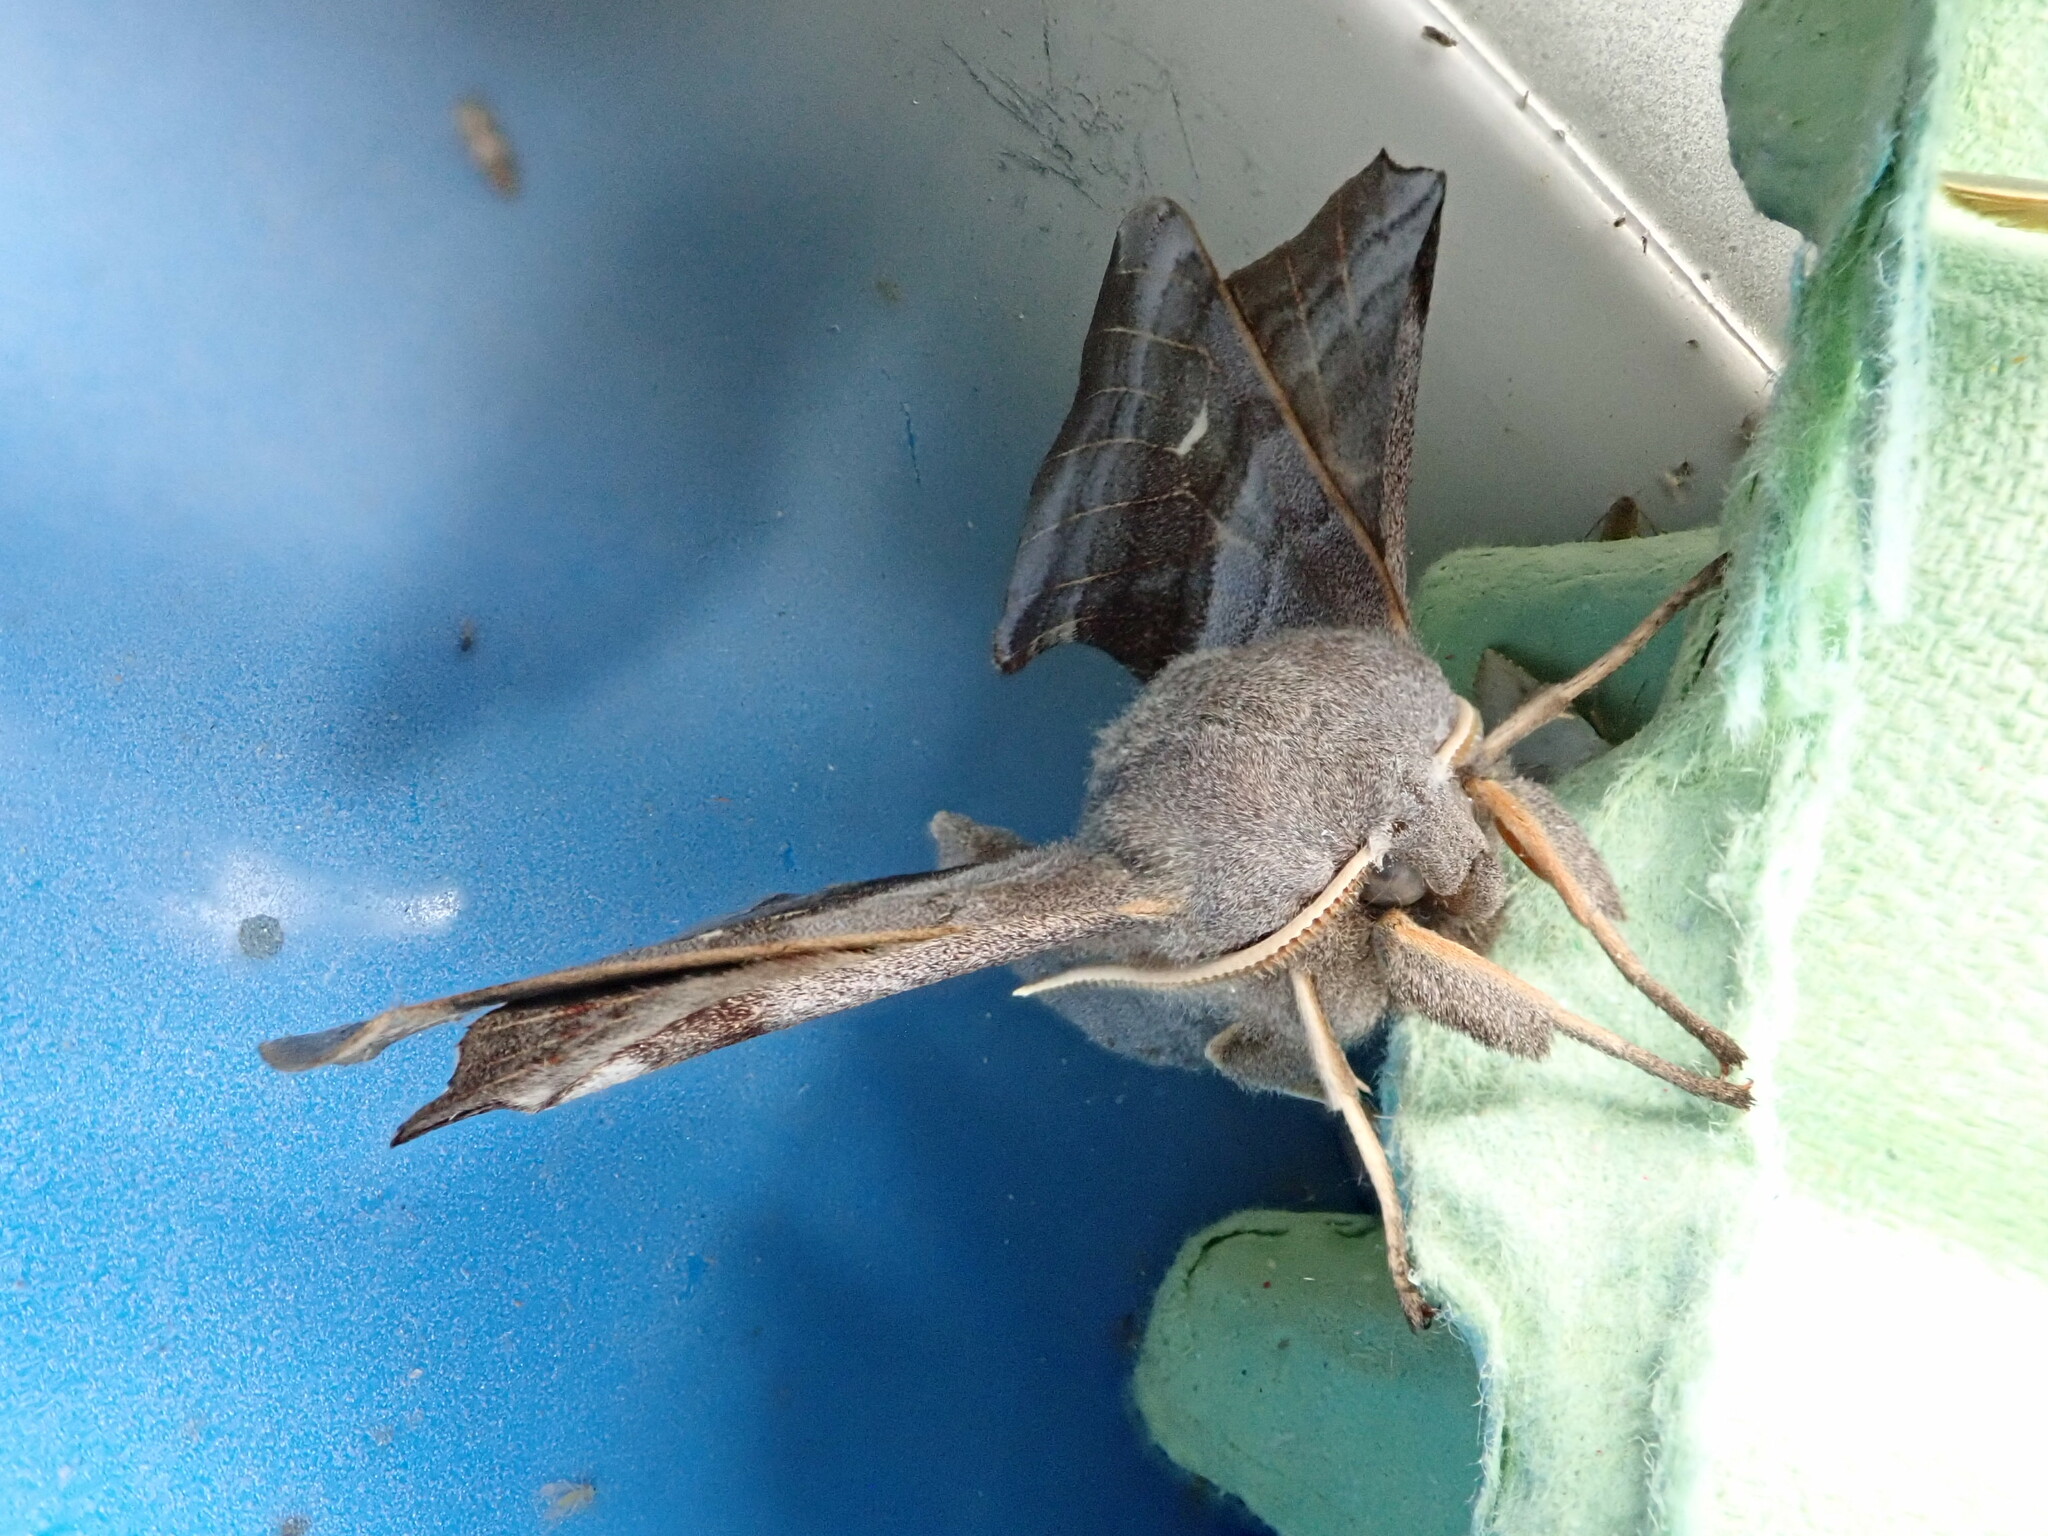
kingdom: Animalia
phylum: Arthropoda
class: Insecta
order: Lepidoptera
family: Sphingidae
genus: Laothoe
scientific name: Laothoe populi
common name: Poplar hawk-moth
